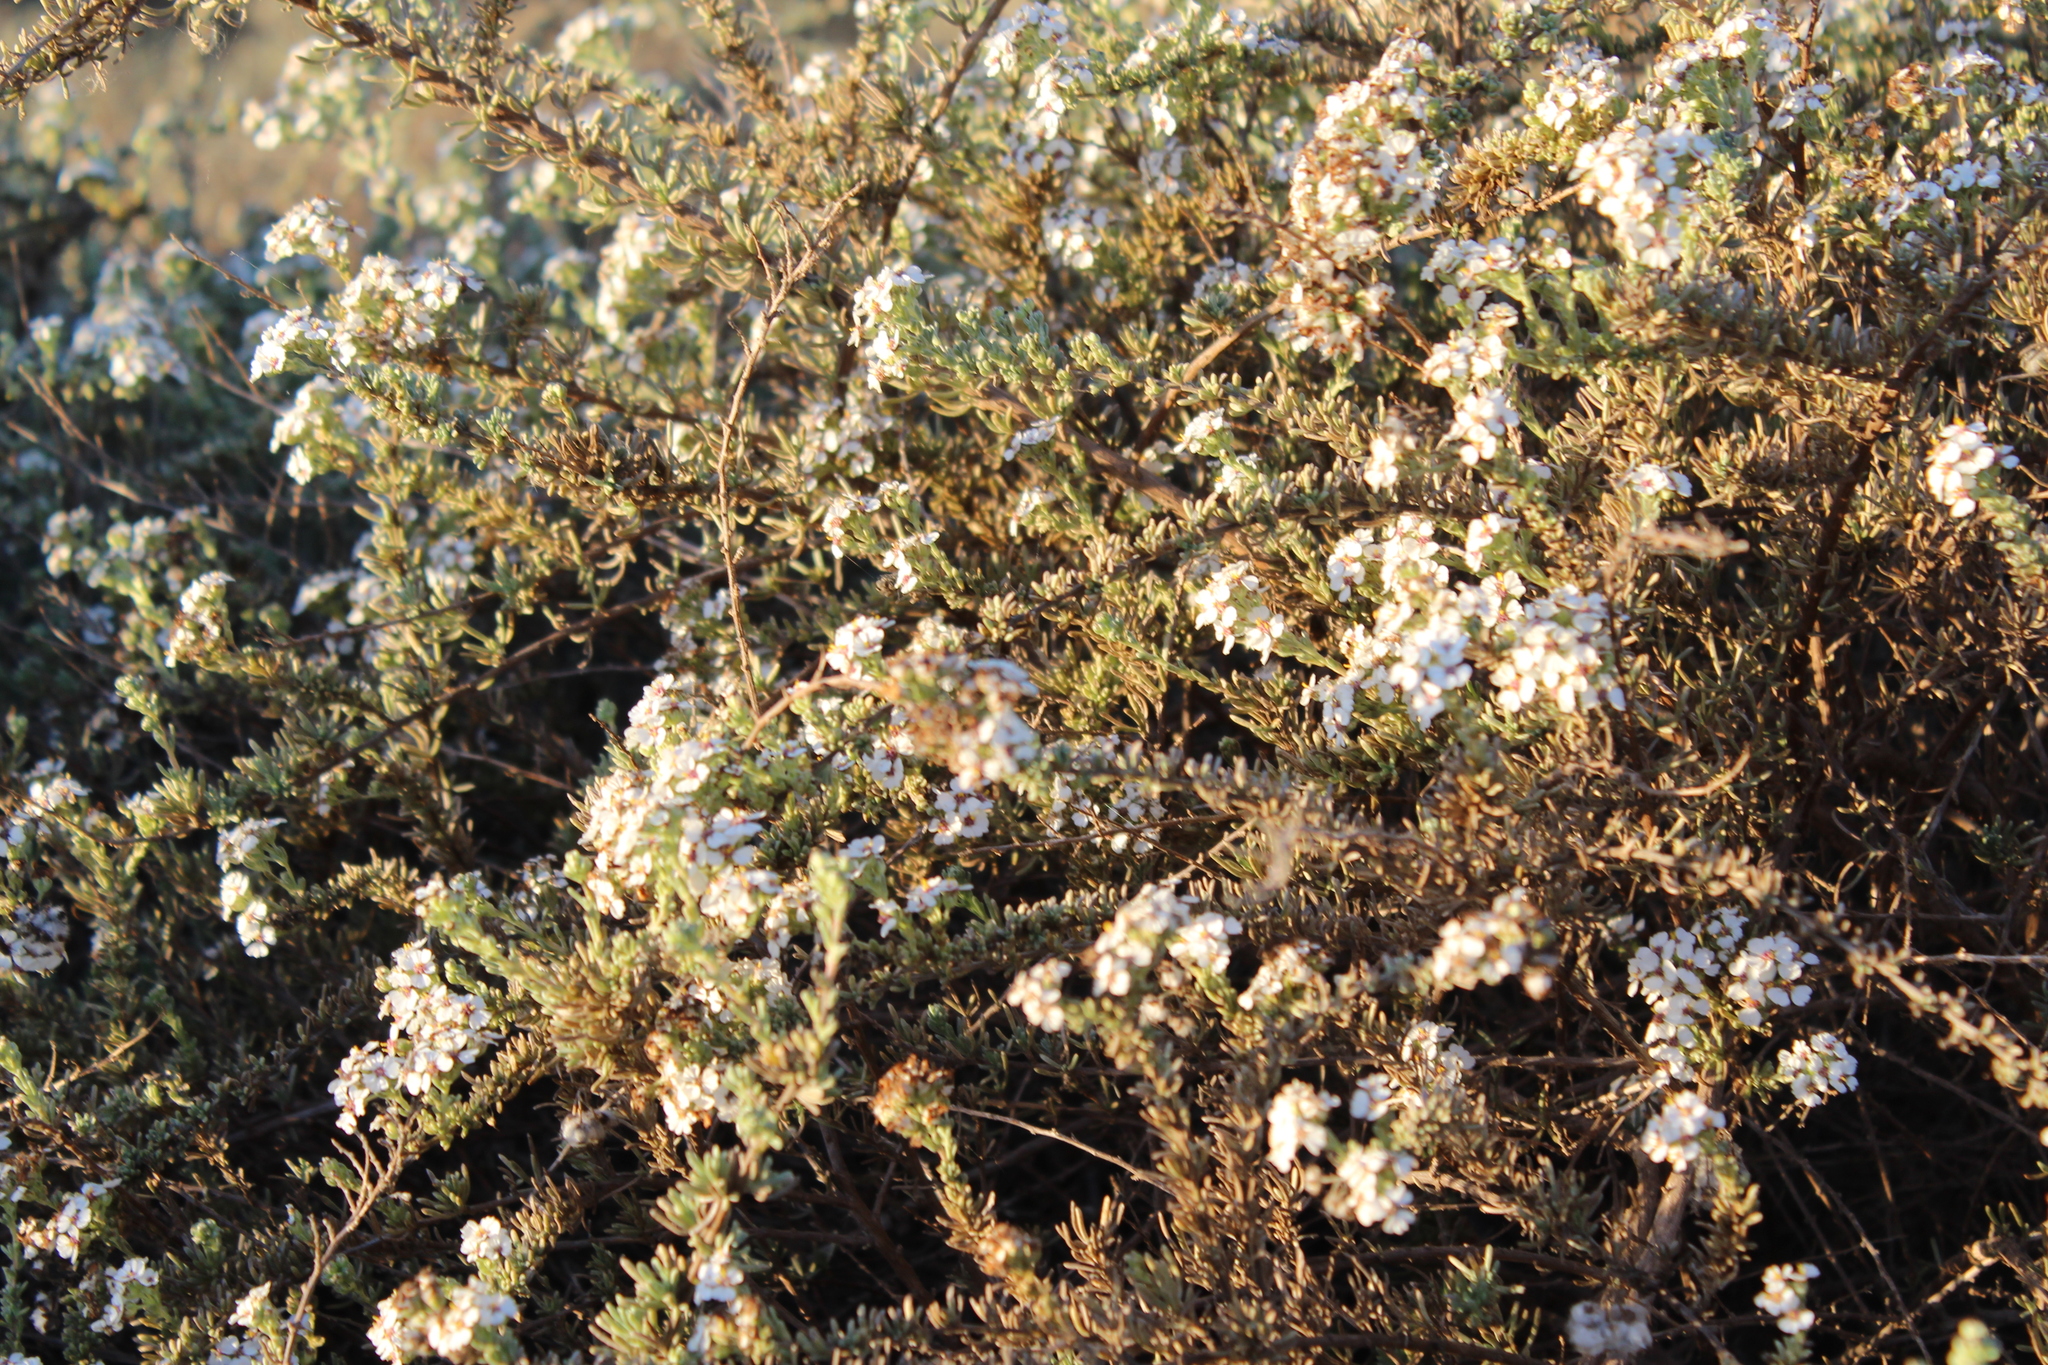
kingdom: Plantae
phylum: Tracheophyta
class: Magnoliopsida
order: Asterales
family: Asteraceae
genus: Eriocephalus
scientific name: Eriocephalus africanus
